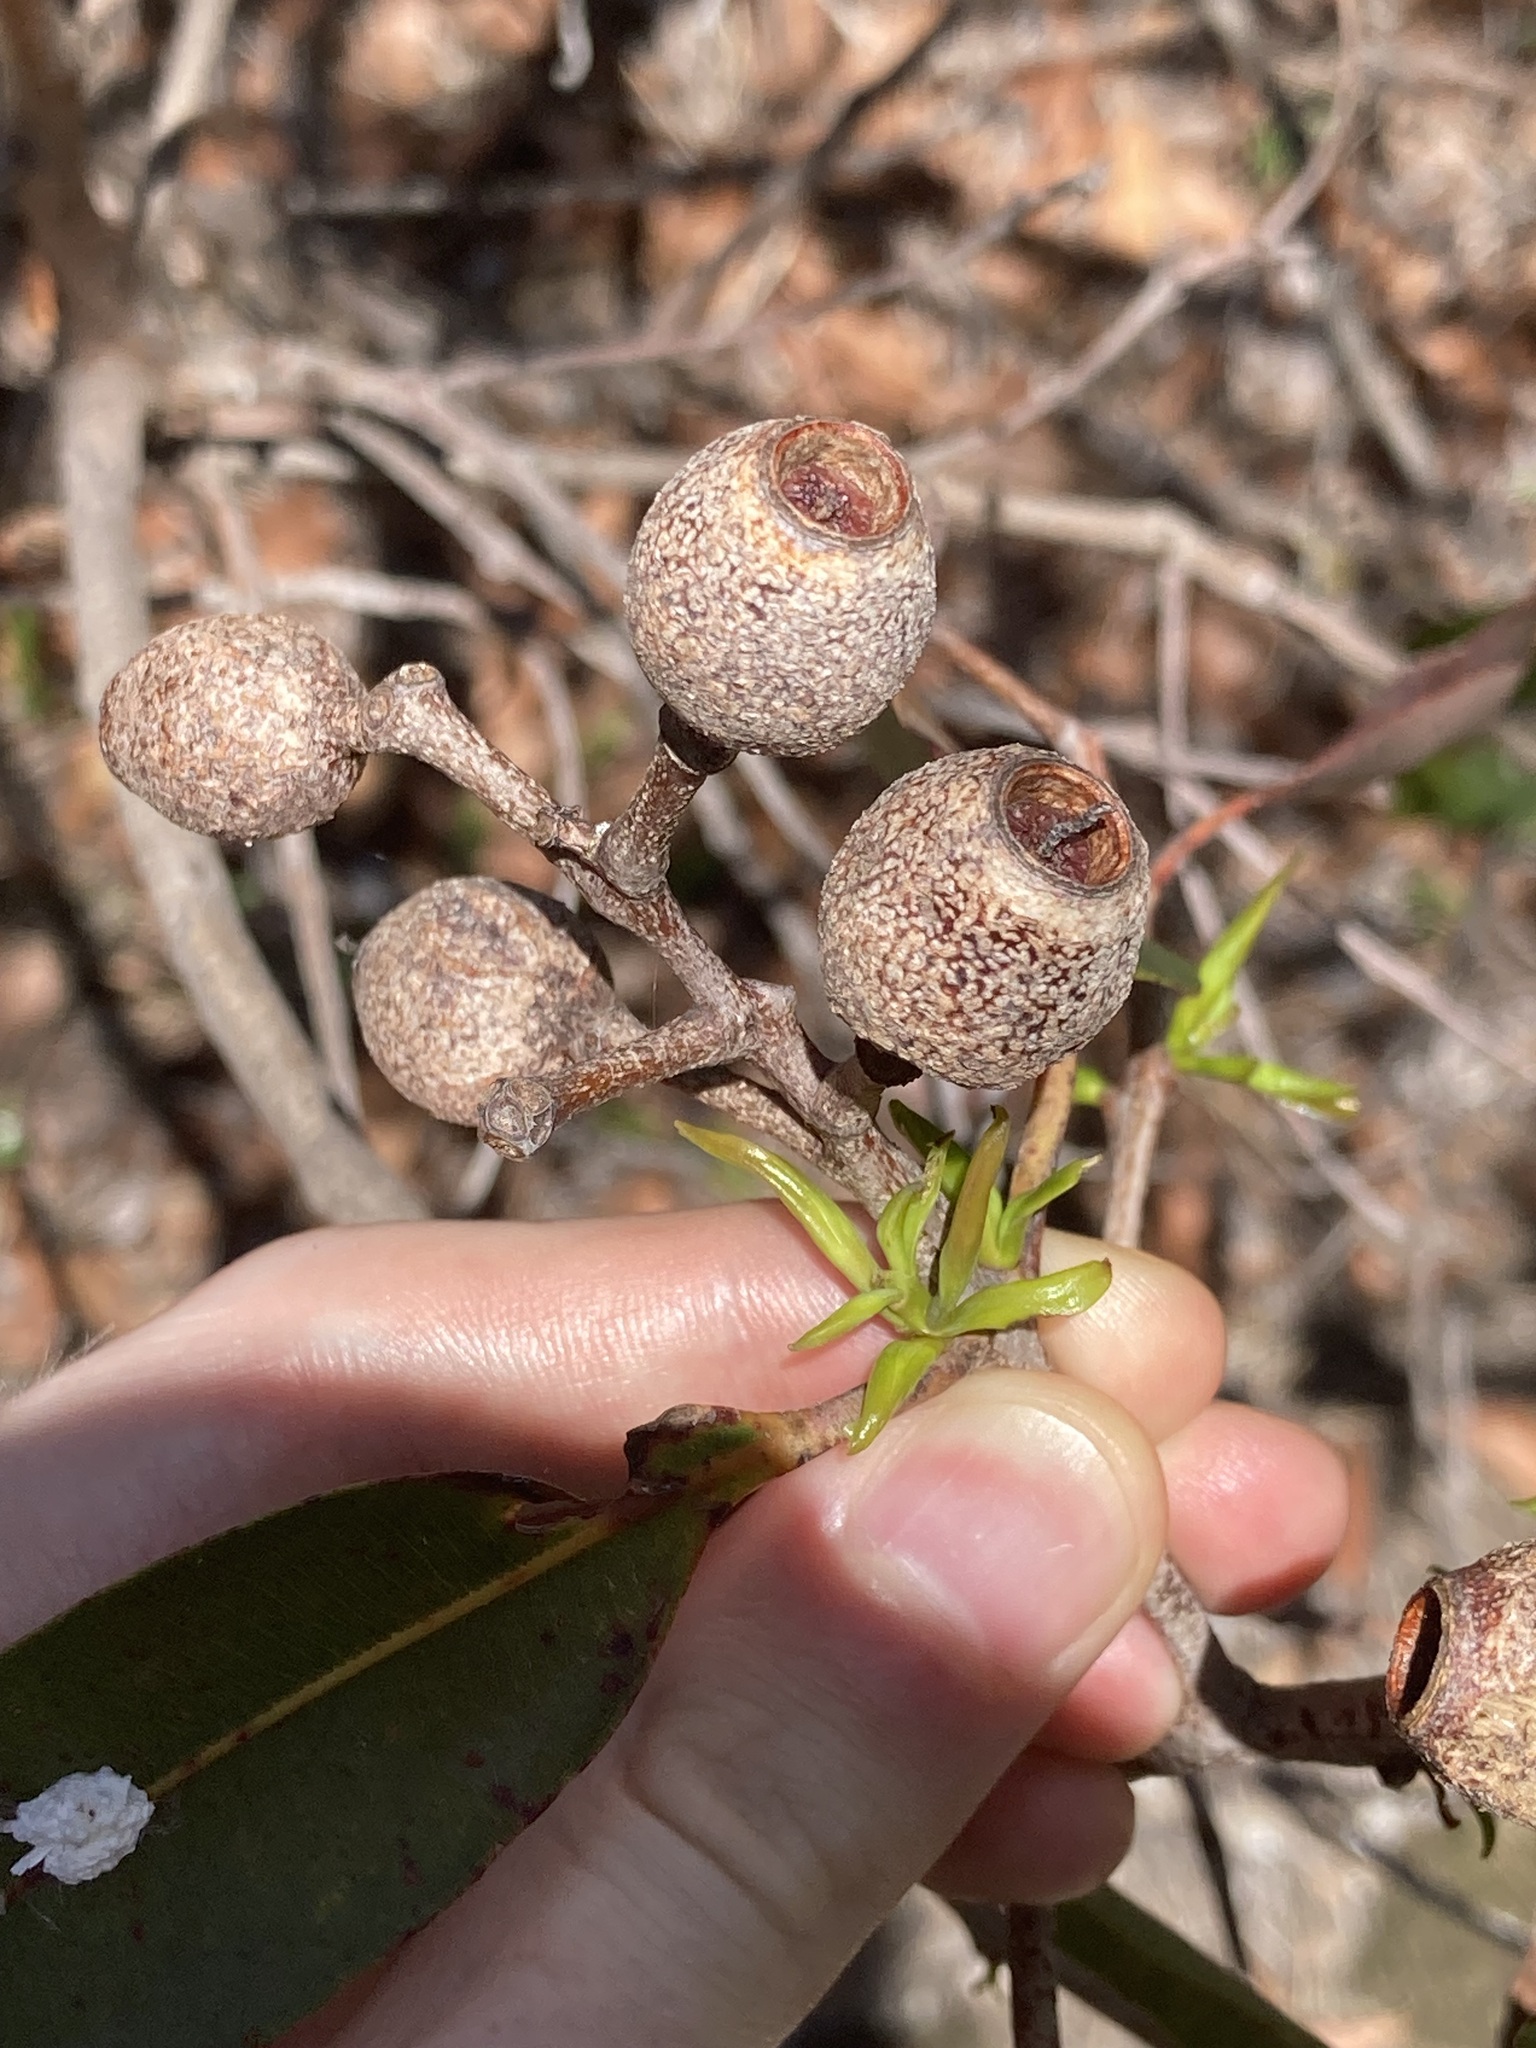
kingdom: Plantae
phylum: Tracheophyta
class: Magnoliopsida
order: Myrtales
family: Myrtaceae
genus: Corymbia
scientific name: Corymbia intermedia
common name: Pink-bloodwood
